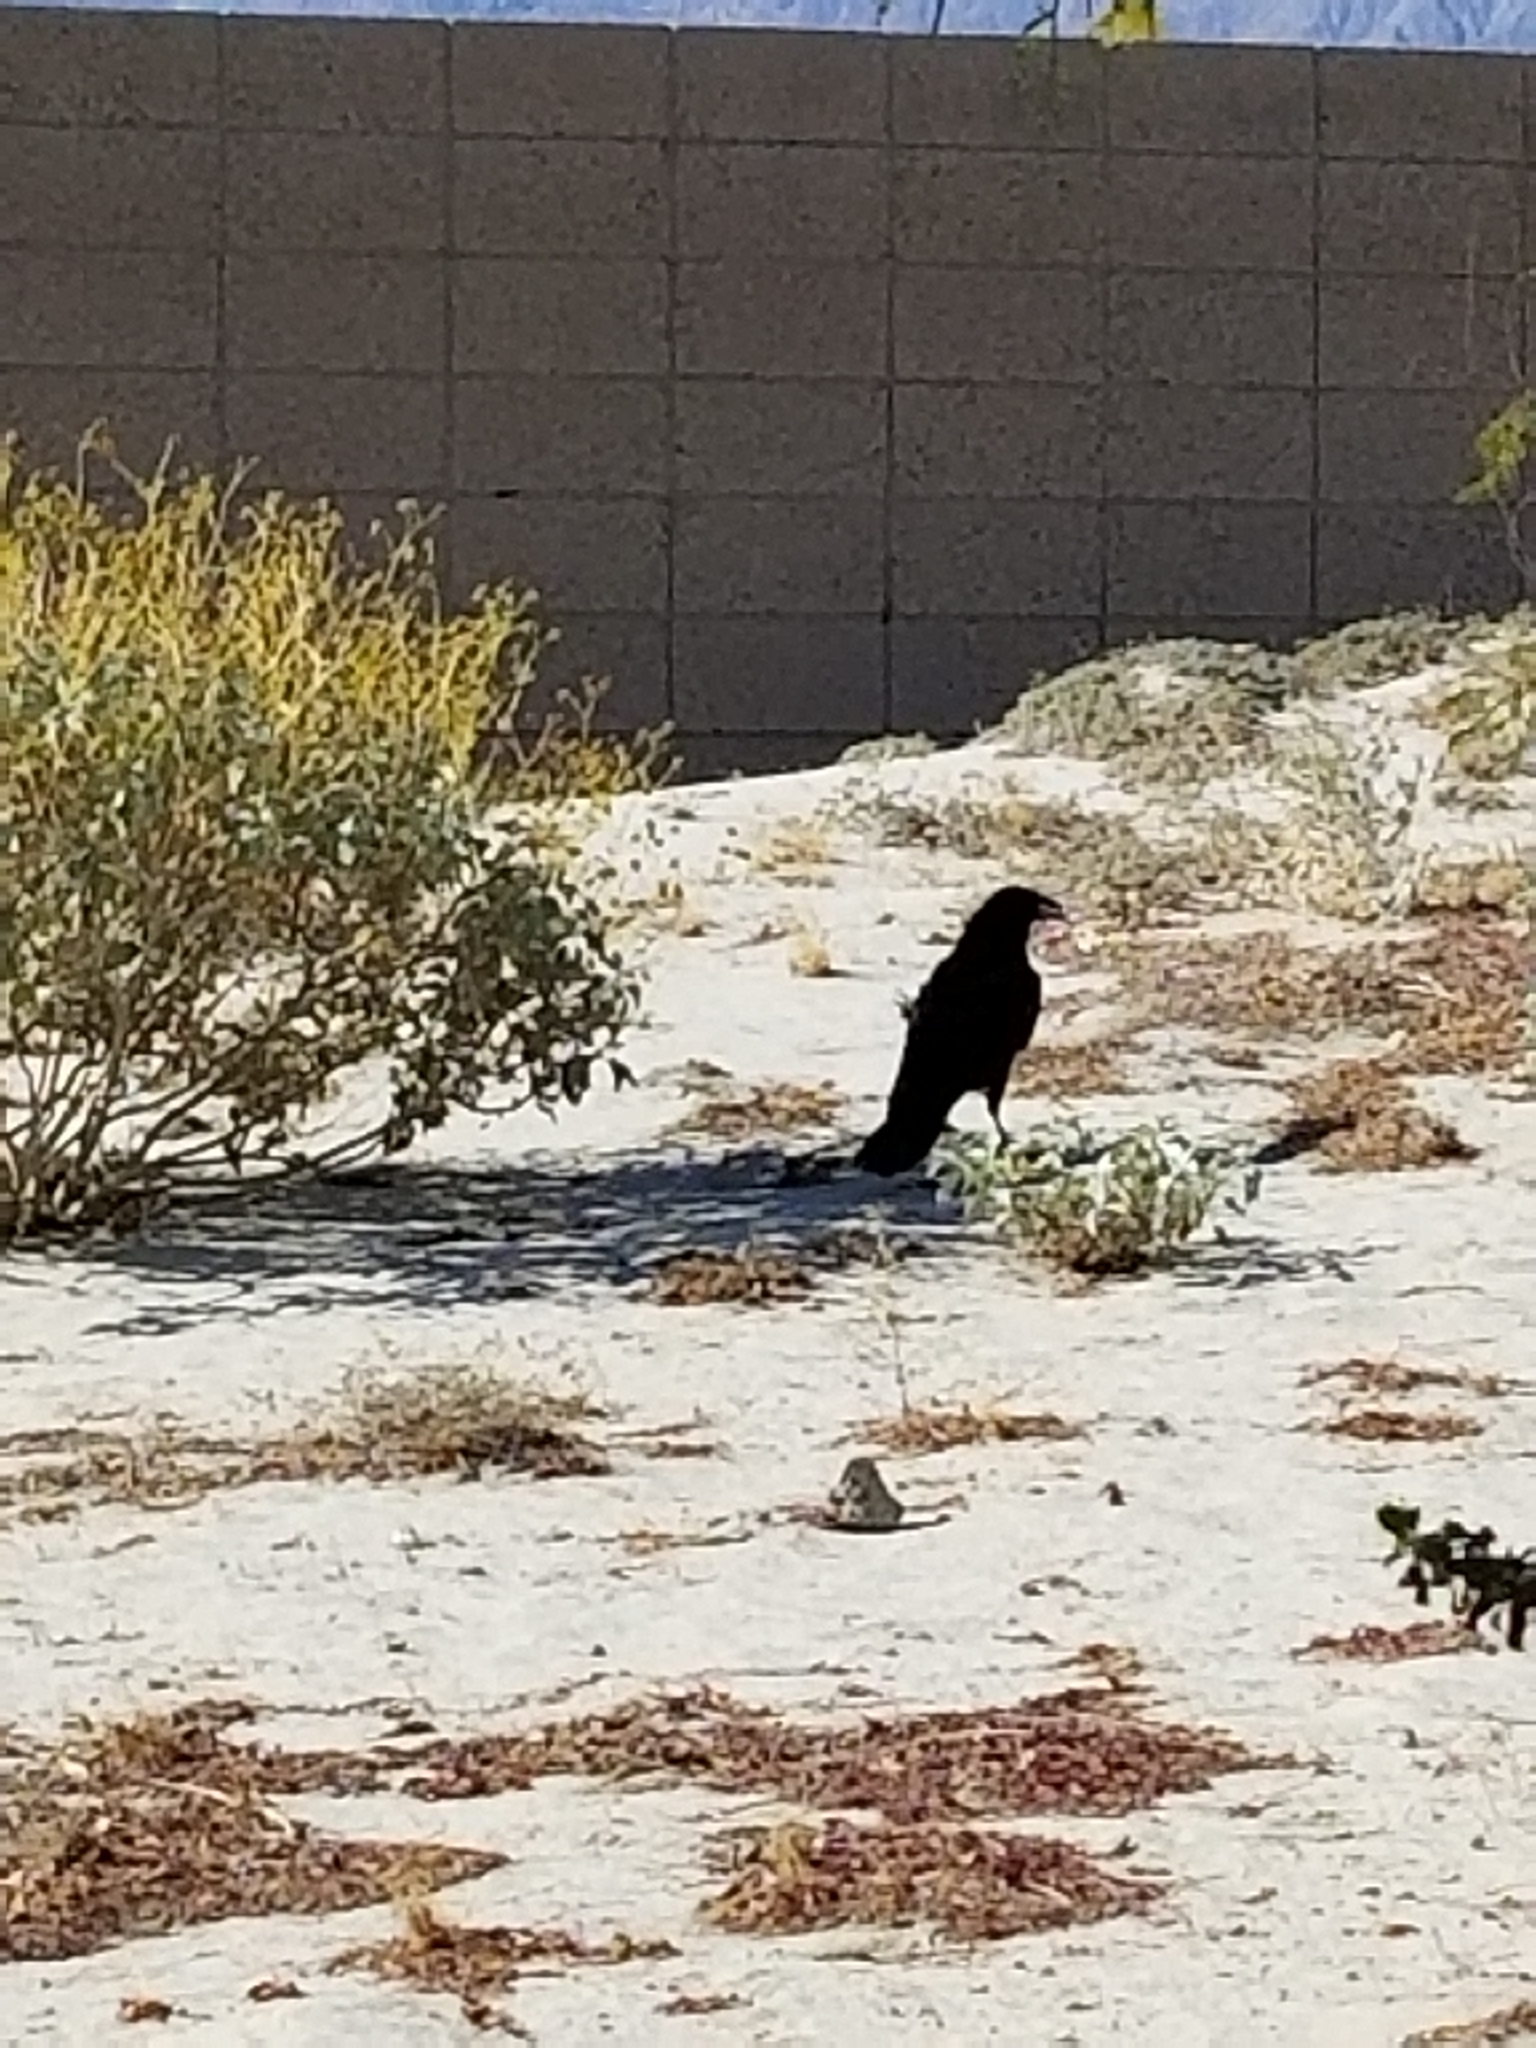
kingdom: Animalia
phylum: Chordata
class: Aves
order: Passeriformes
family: Corvidae
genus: Corvus
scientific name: Corvus corax
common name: Common raven
